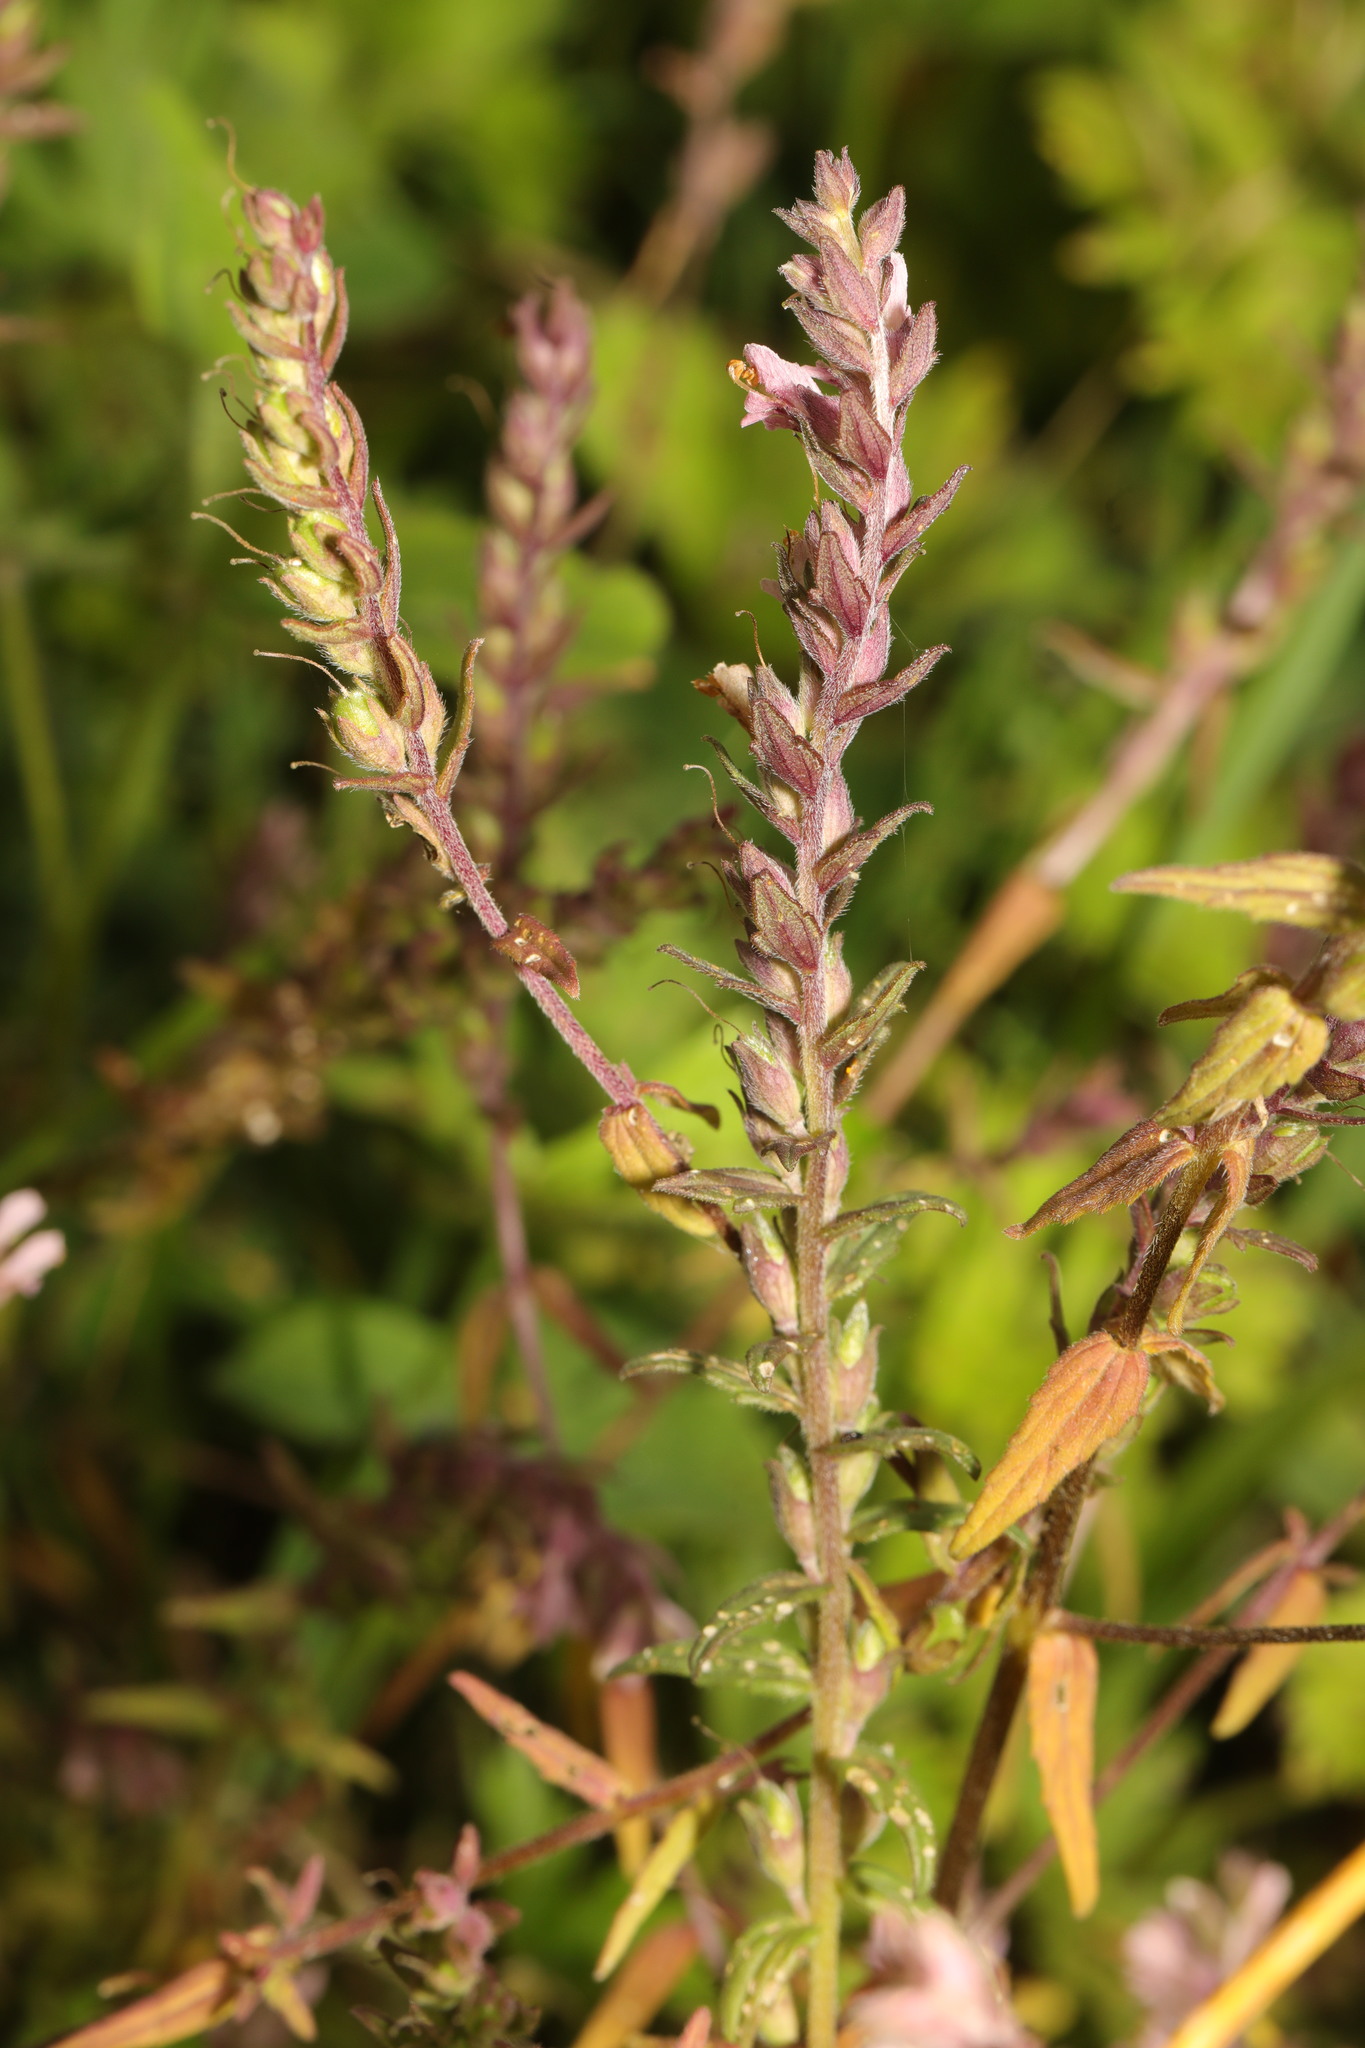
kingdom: Plantae
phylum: Tracheophyta
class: Magnoliopsida
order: Lamiales
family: Orobanchaceae
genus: Odontites
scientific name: Odontites vulgaris
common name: Broomrape
